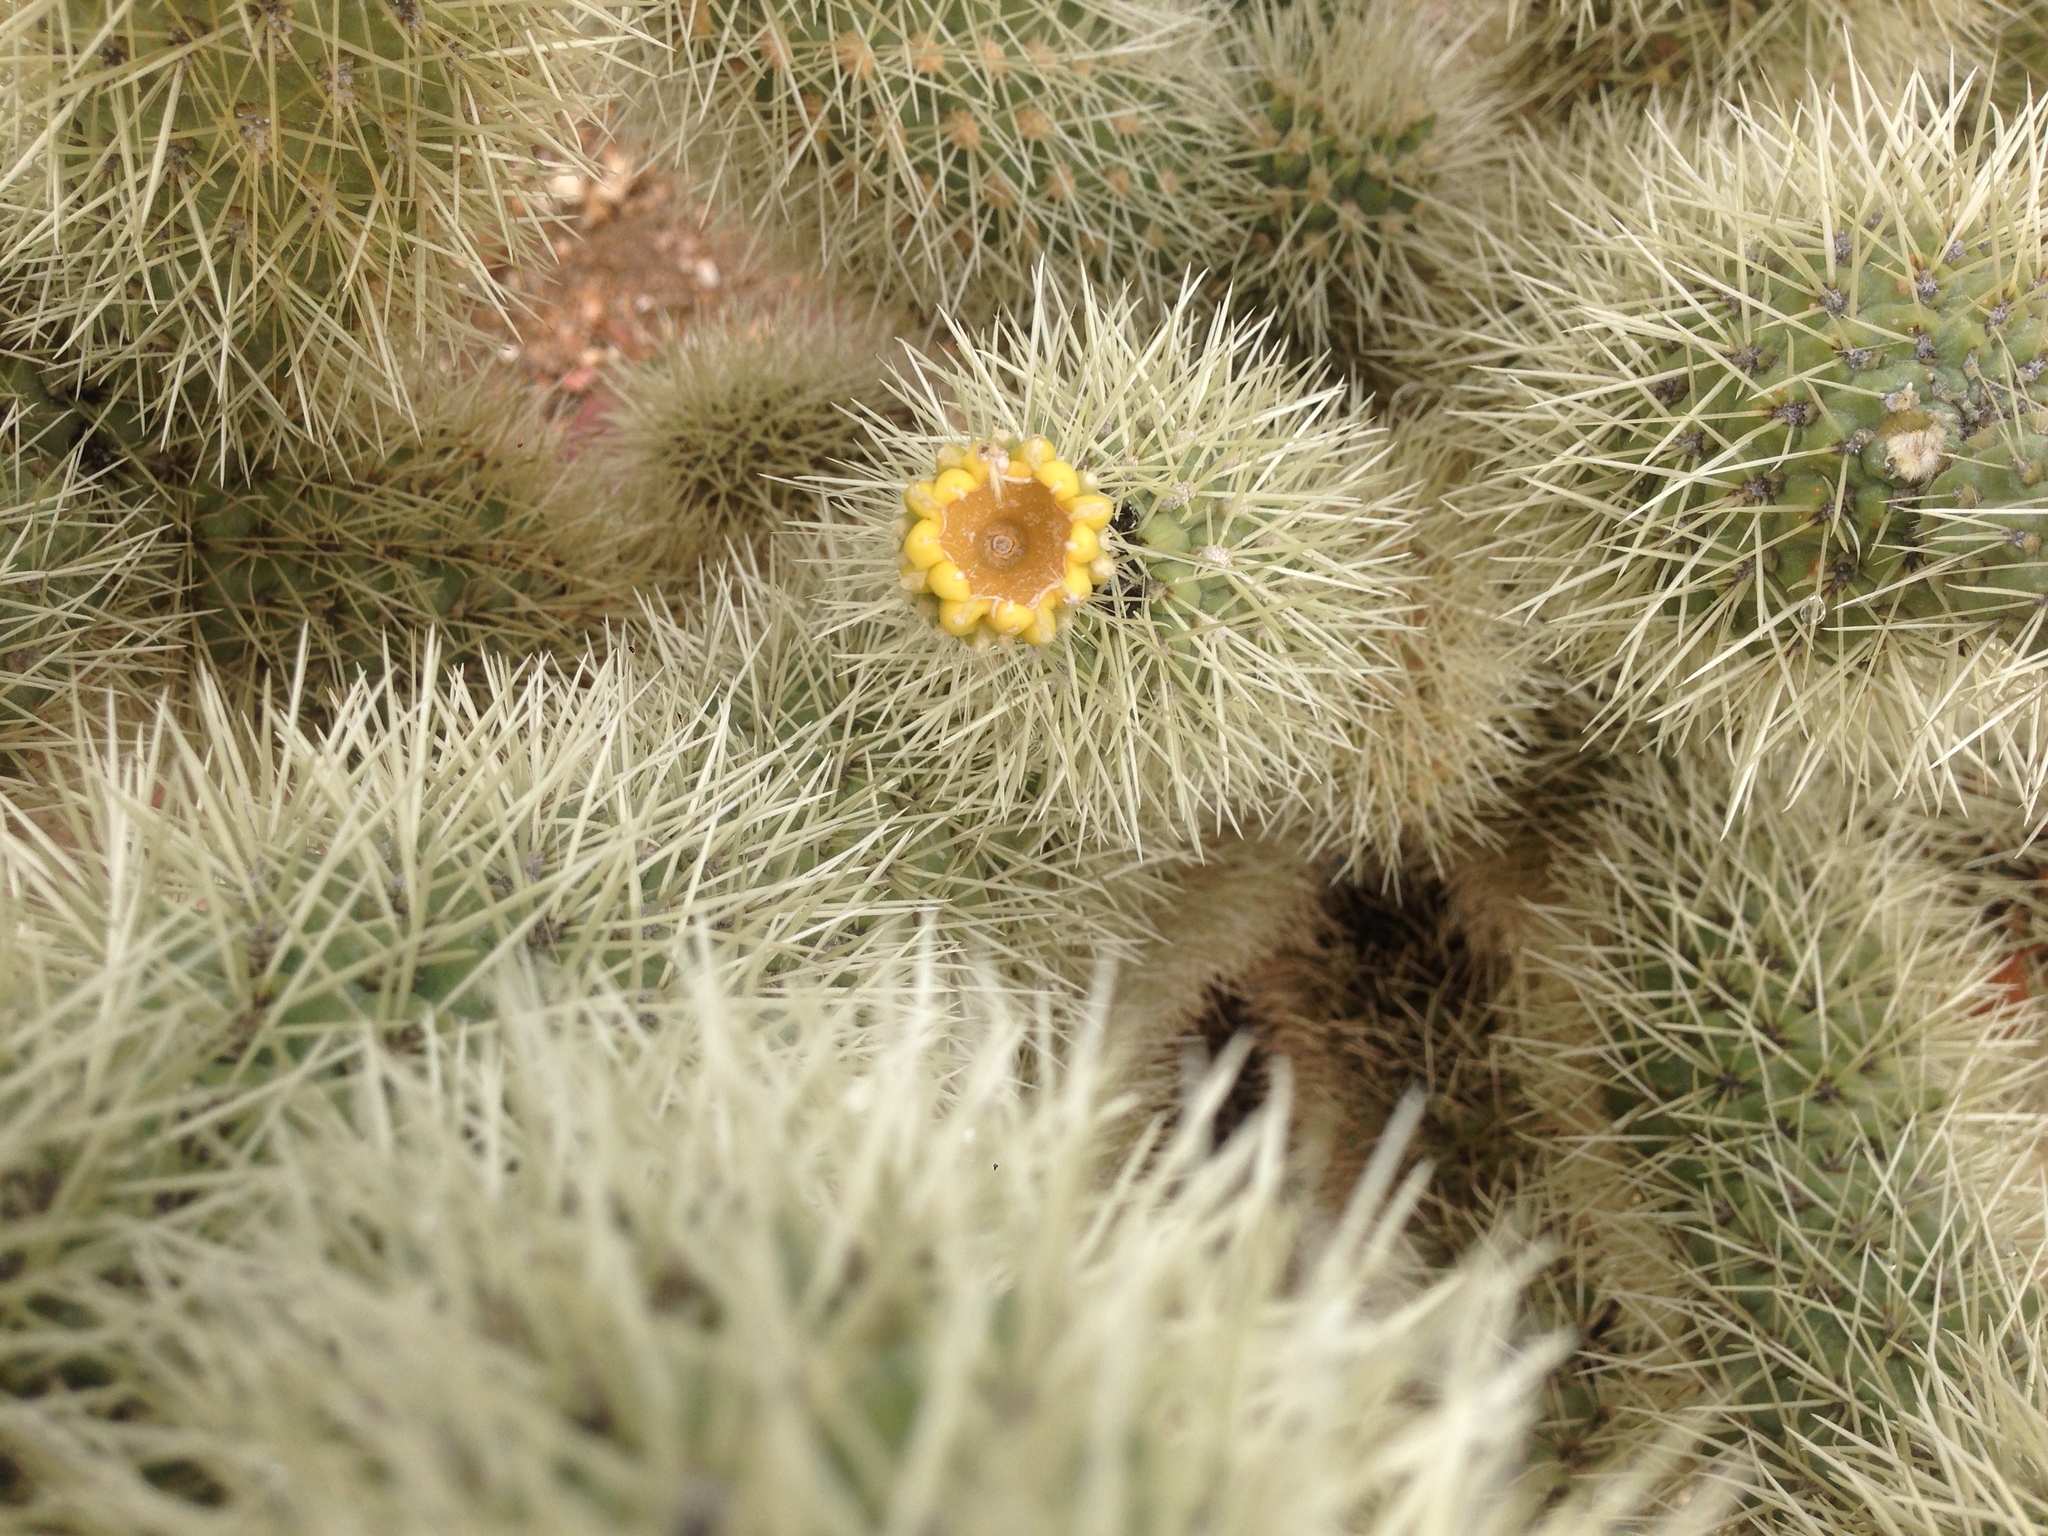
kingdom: Plantae
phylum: Tracheophyta
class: Magnoliopsida
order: Caryophyllales
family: Cactaceae
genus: Cylindropuntia
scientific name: Cylindropuntia fosbergii
